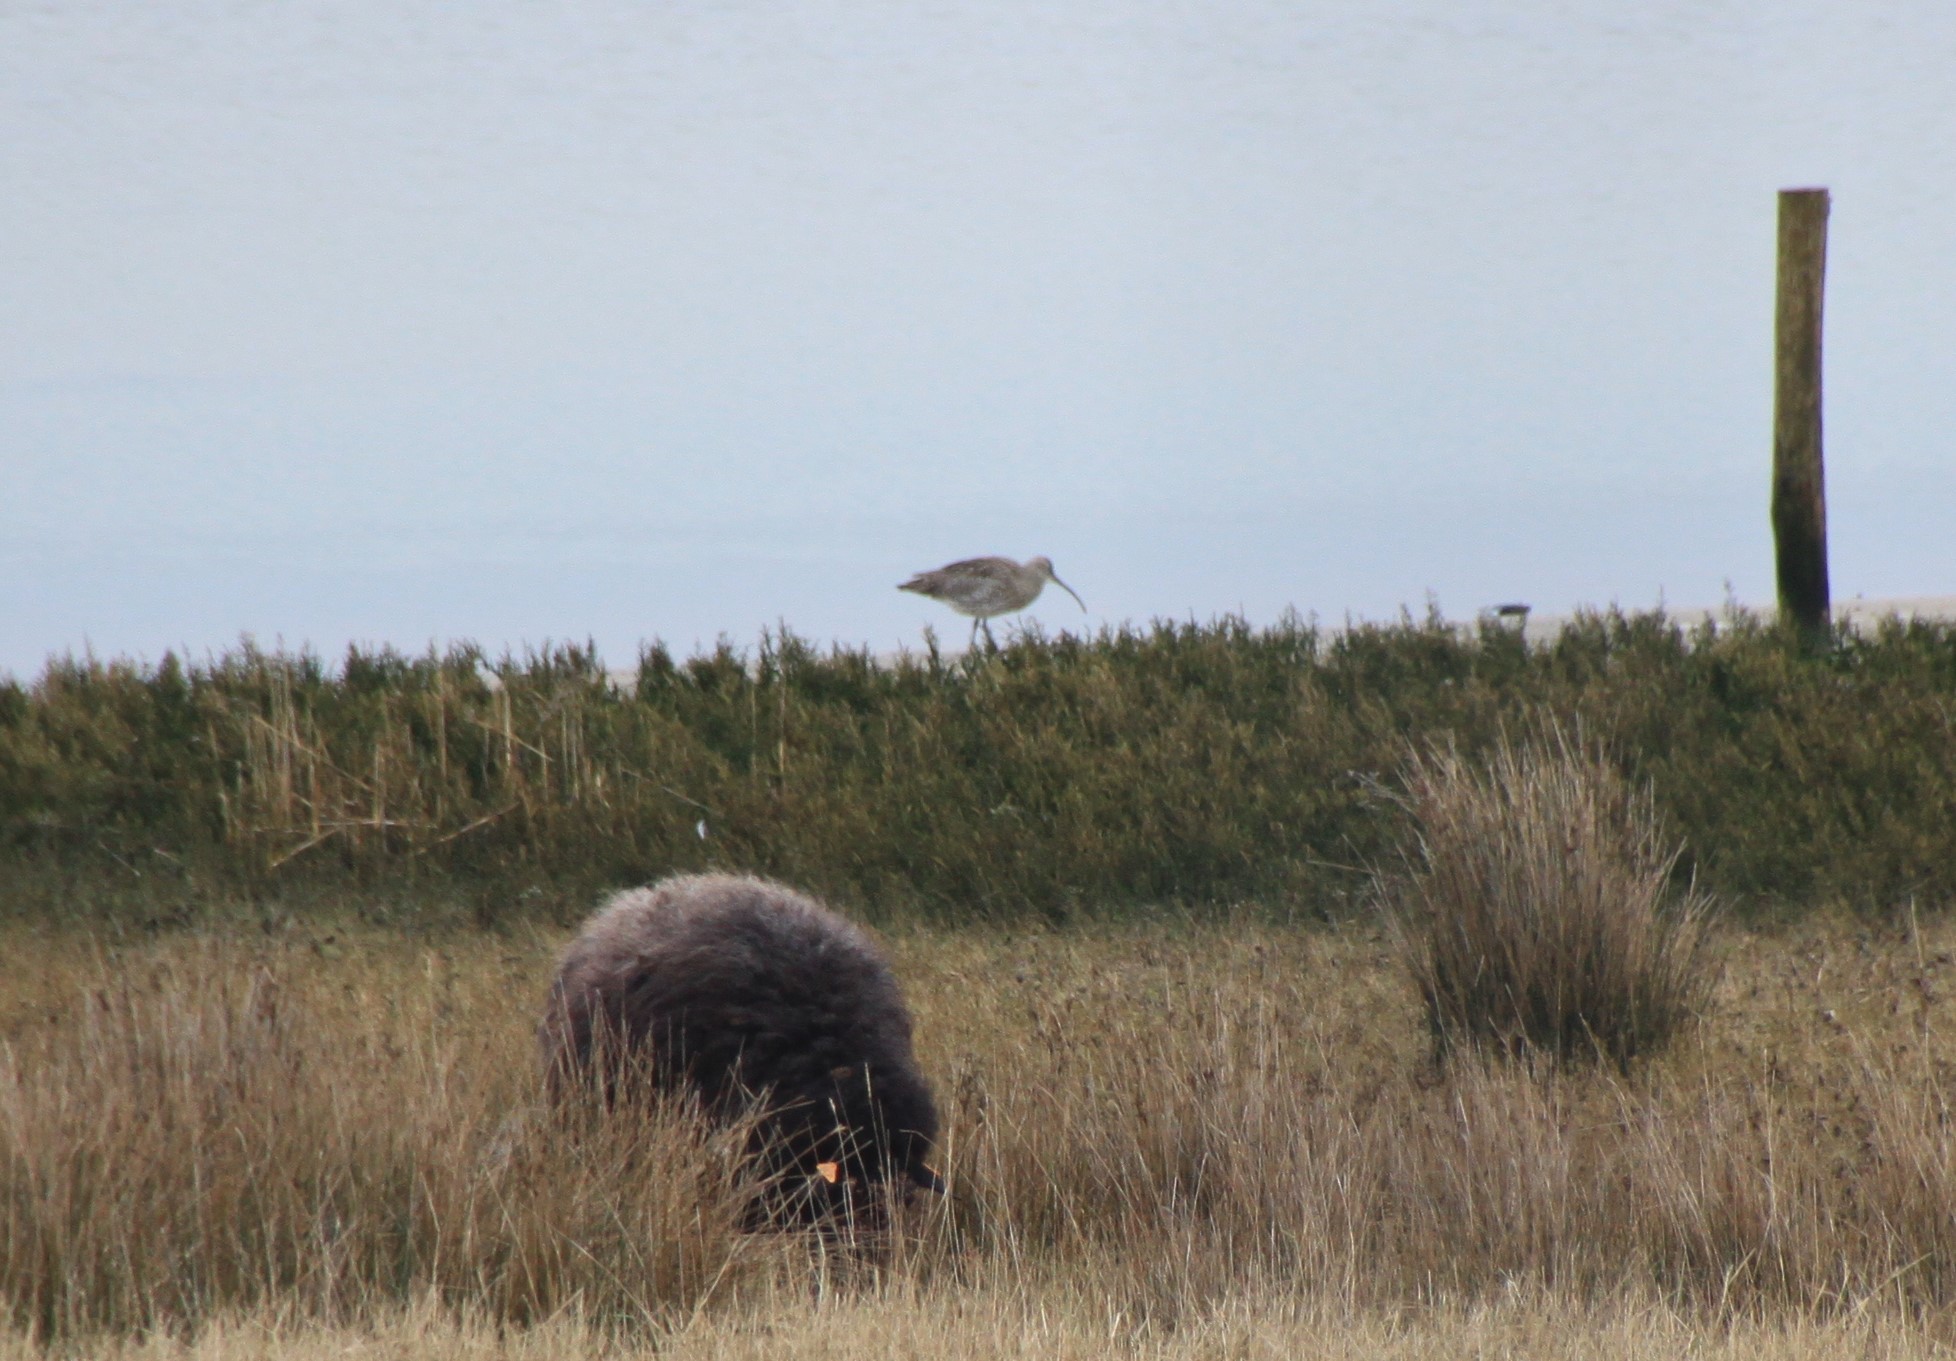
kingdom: Animalia
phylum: Chordata
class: Aves
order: Charadriiformes
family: Scolopacidae
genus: Numenius
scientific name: Numenius arquata
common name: Eurasian curlew
